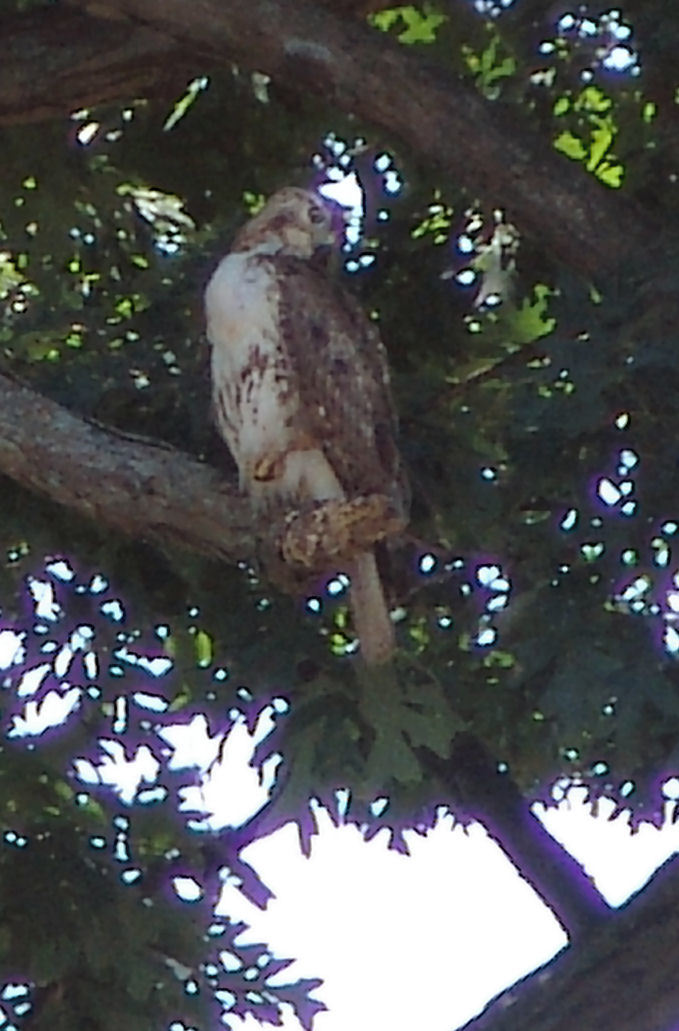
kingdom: Animalia
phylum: Chordata
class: Aves
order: Accipitriformes
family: Accipitridae
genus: Buteo
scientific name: Buteo jamaicensis
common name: Red-tailed hawk
